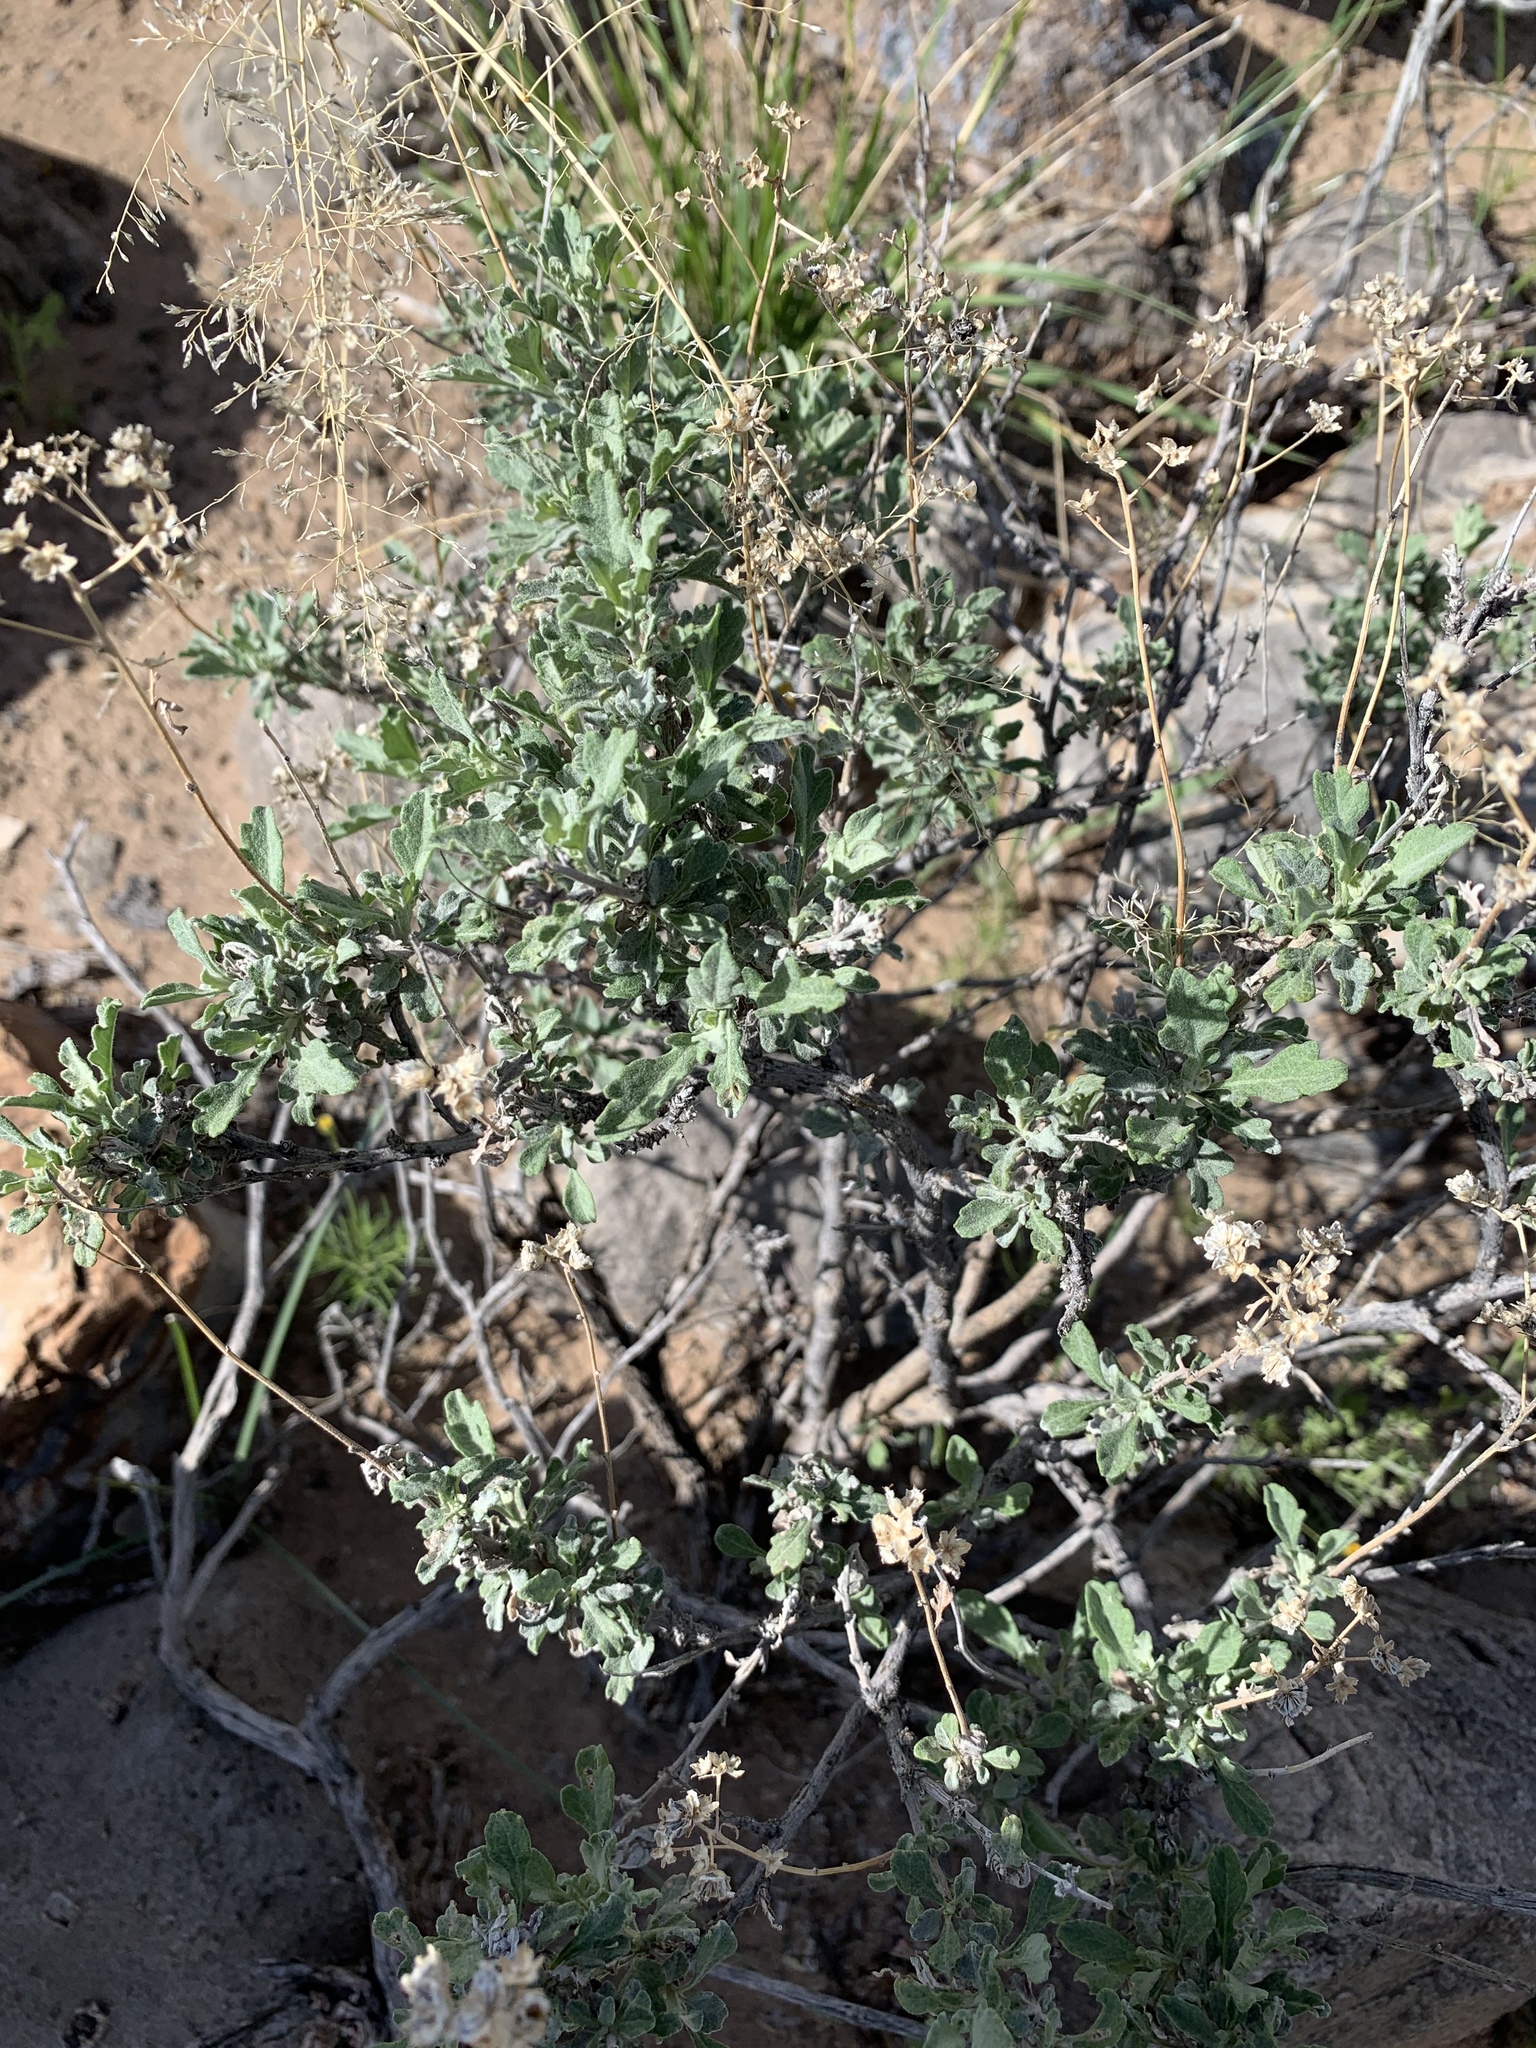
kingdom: Plantae
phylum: Tracheophyta
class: Magnoliopsida
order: Asterales
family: Asteraceae
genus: Parthenium
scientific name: Parthenium incanum
